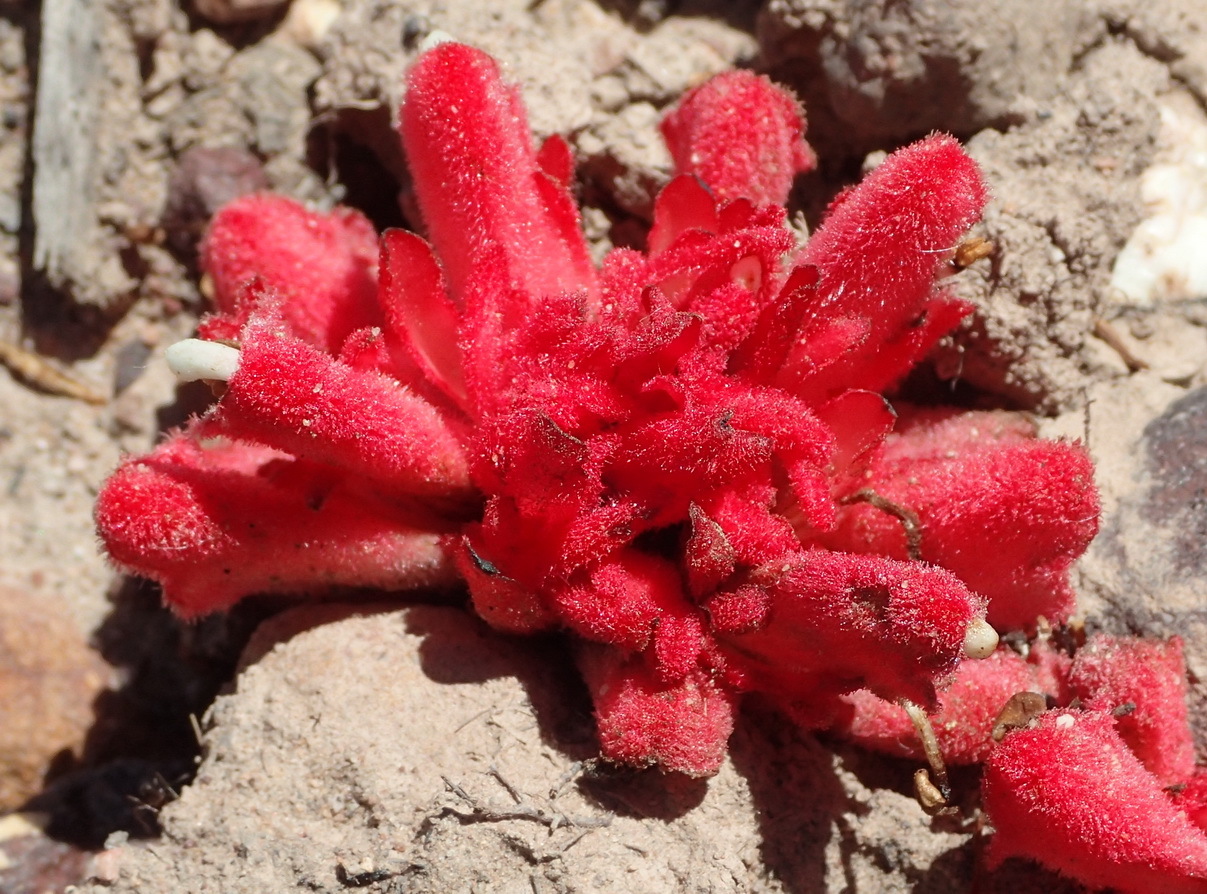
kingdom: Plantae
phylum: Tracheophyta
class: Magnoliopsida
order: Lamiales
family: Orobanchaceae
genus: Hyobanche
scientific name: Hyobanche sanguinea
